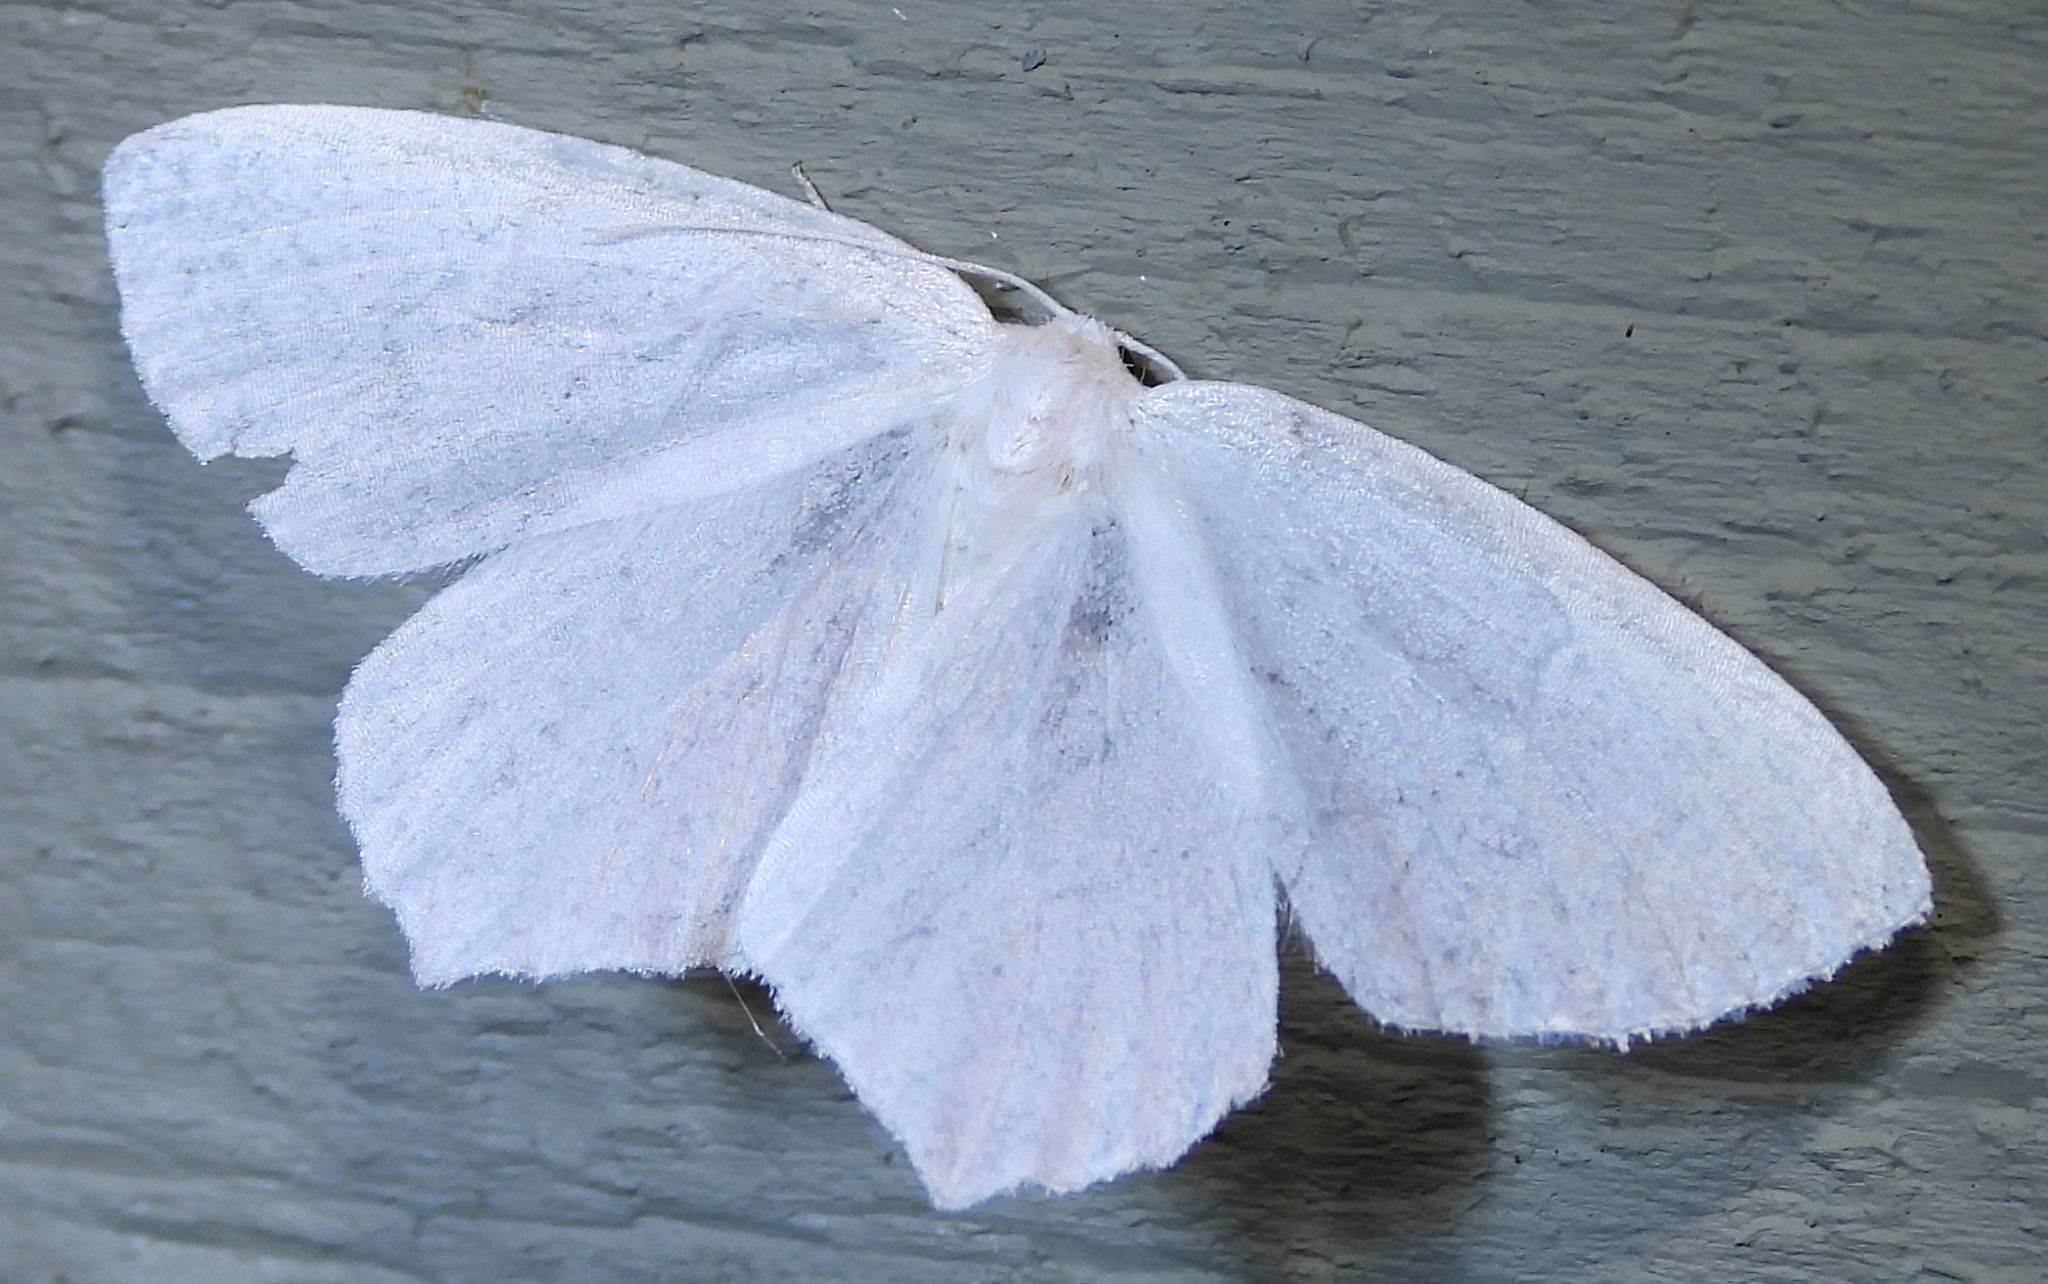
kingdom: Animalia
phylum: Arthropoda
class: Insecta
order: Lepidoptera
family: Geometridae
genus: Eugonobapta
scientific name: Eugonobapta nivosaria
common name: Snowy geometer
